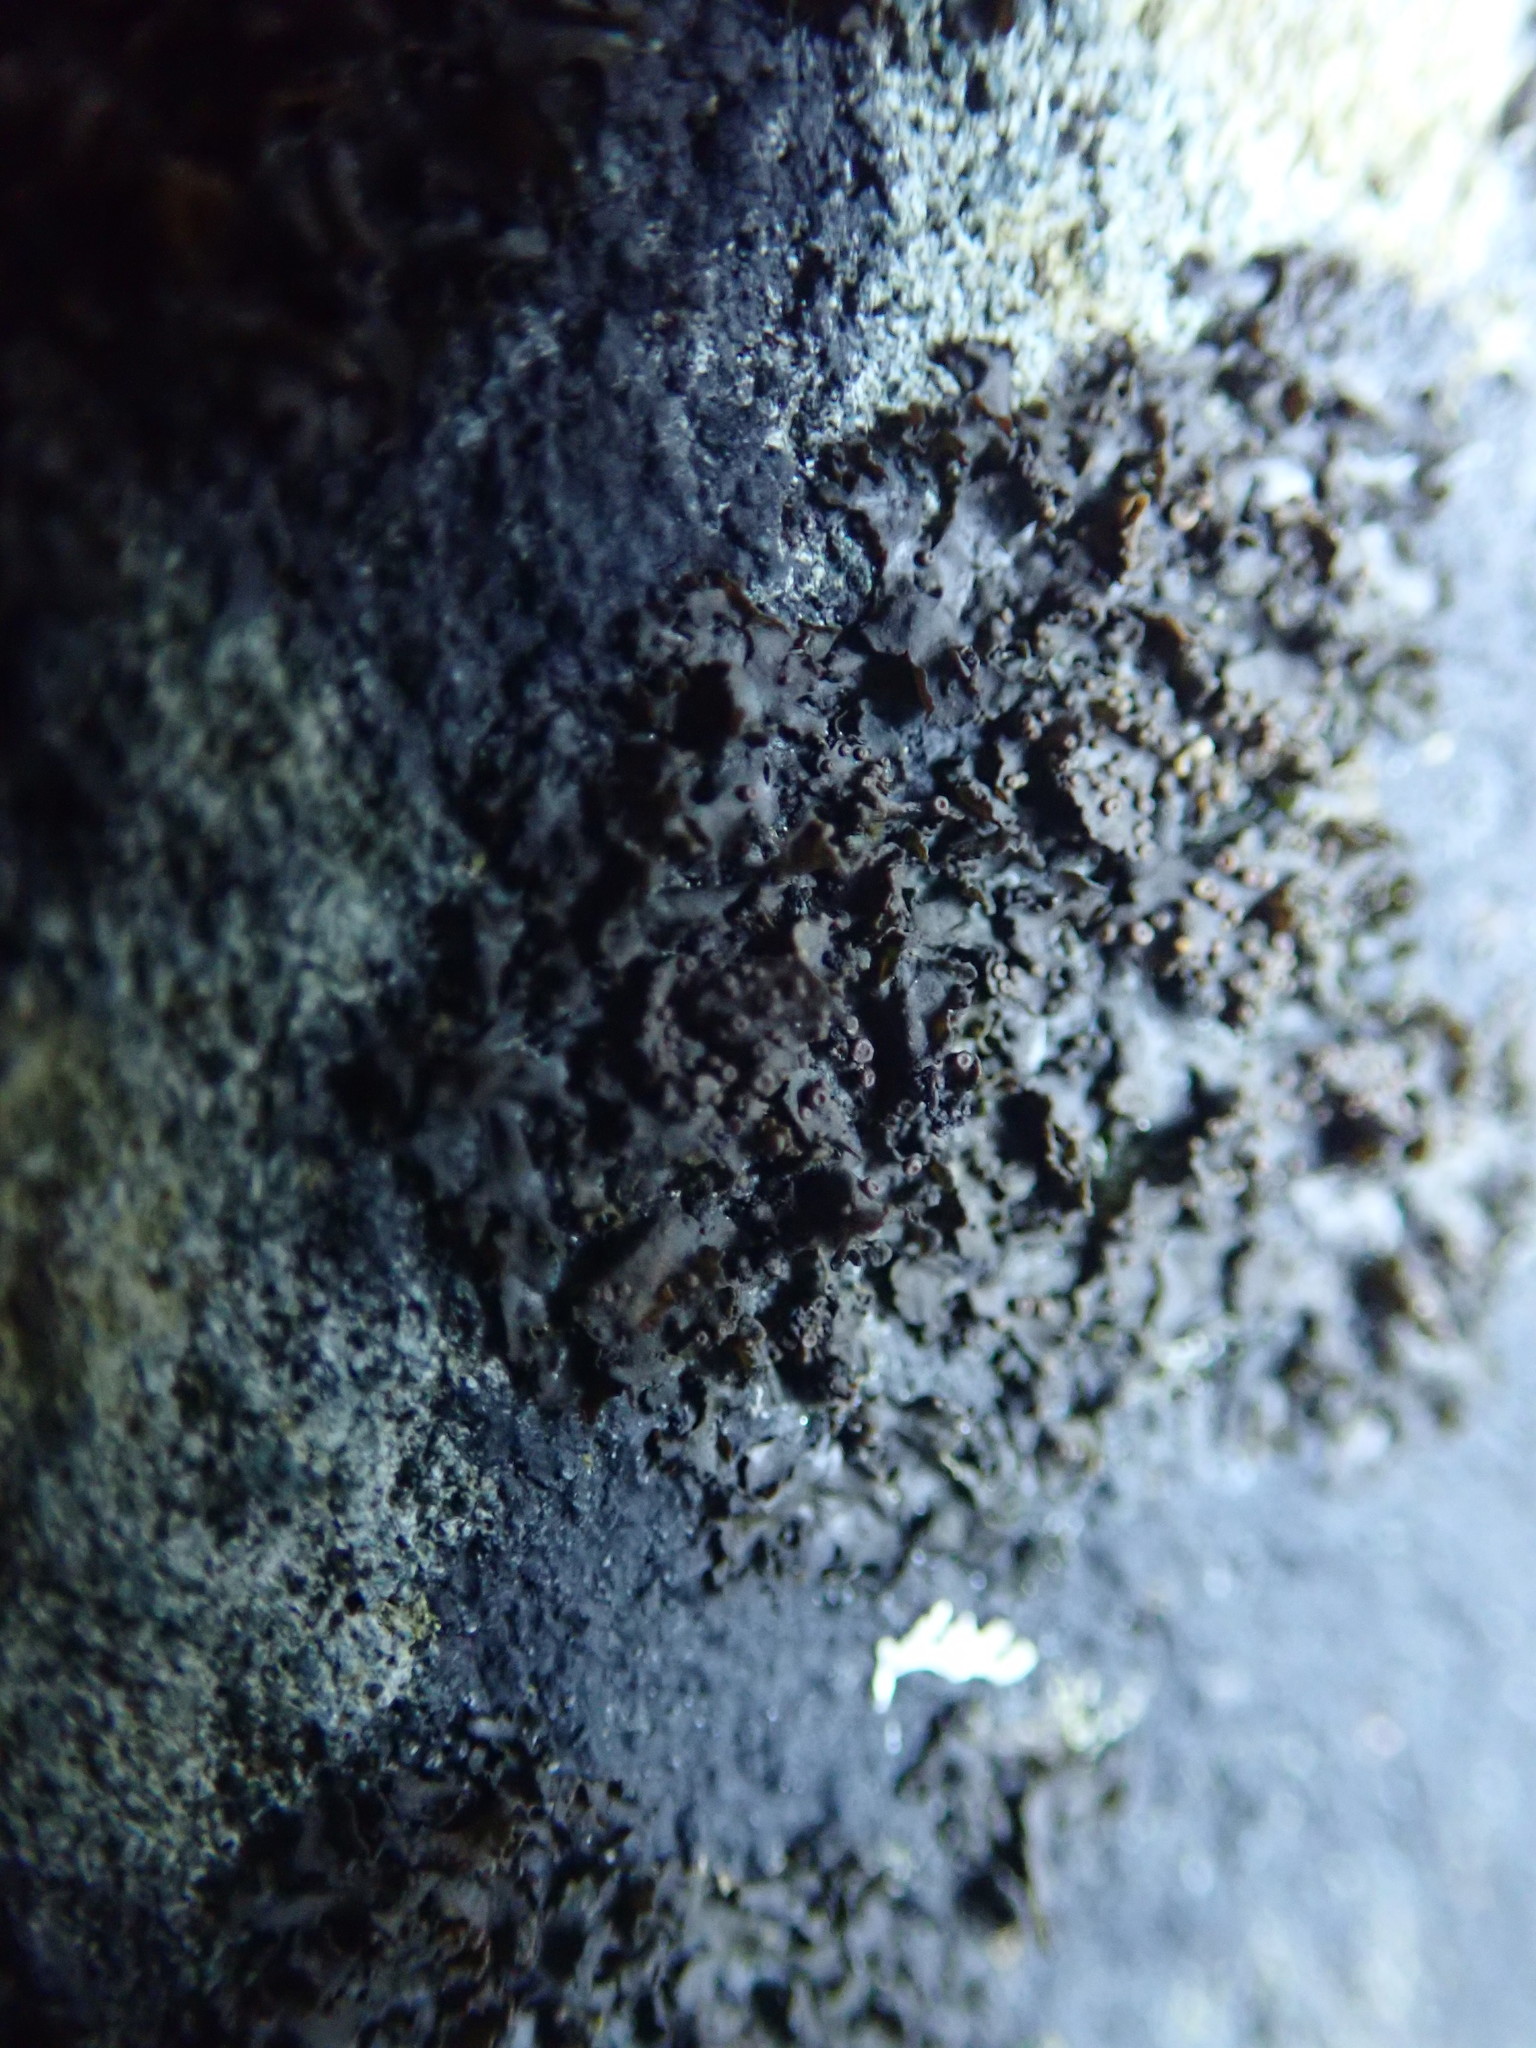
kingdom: Fungi
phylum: Ascomycota
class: Lecanoromycetes
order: Peltigerales
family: Collemataceae
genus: Blennothallia
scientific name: Blennothallia fecunda
